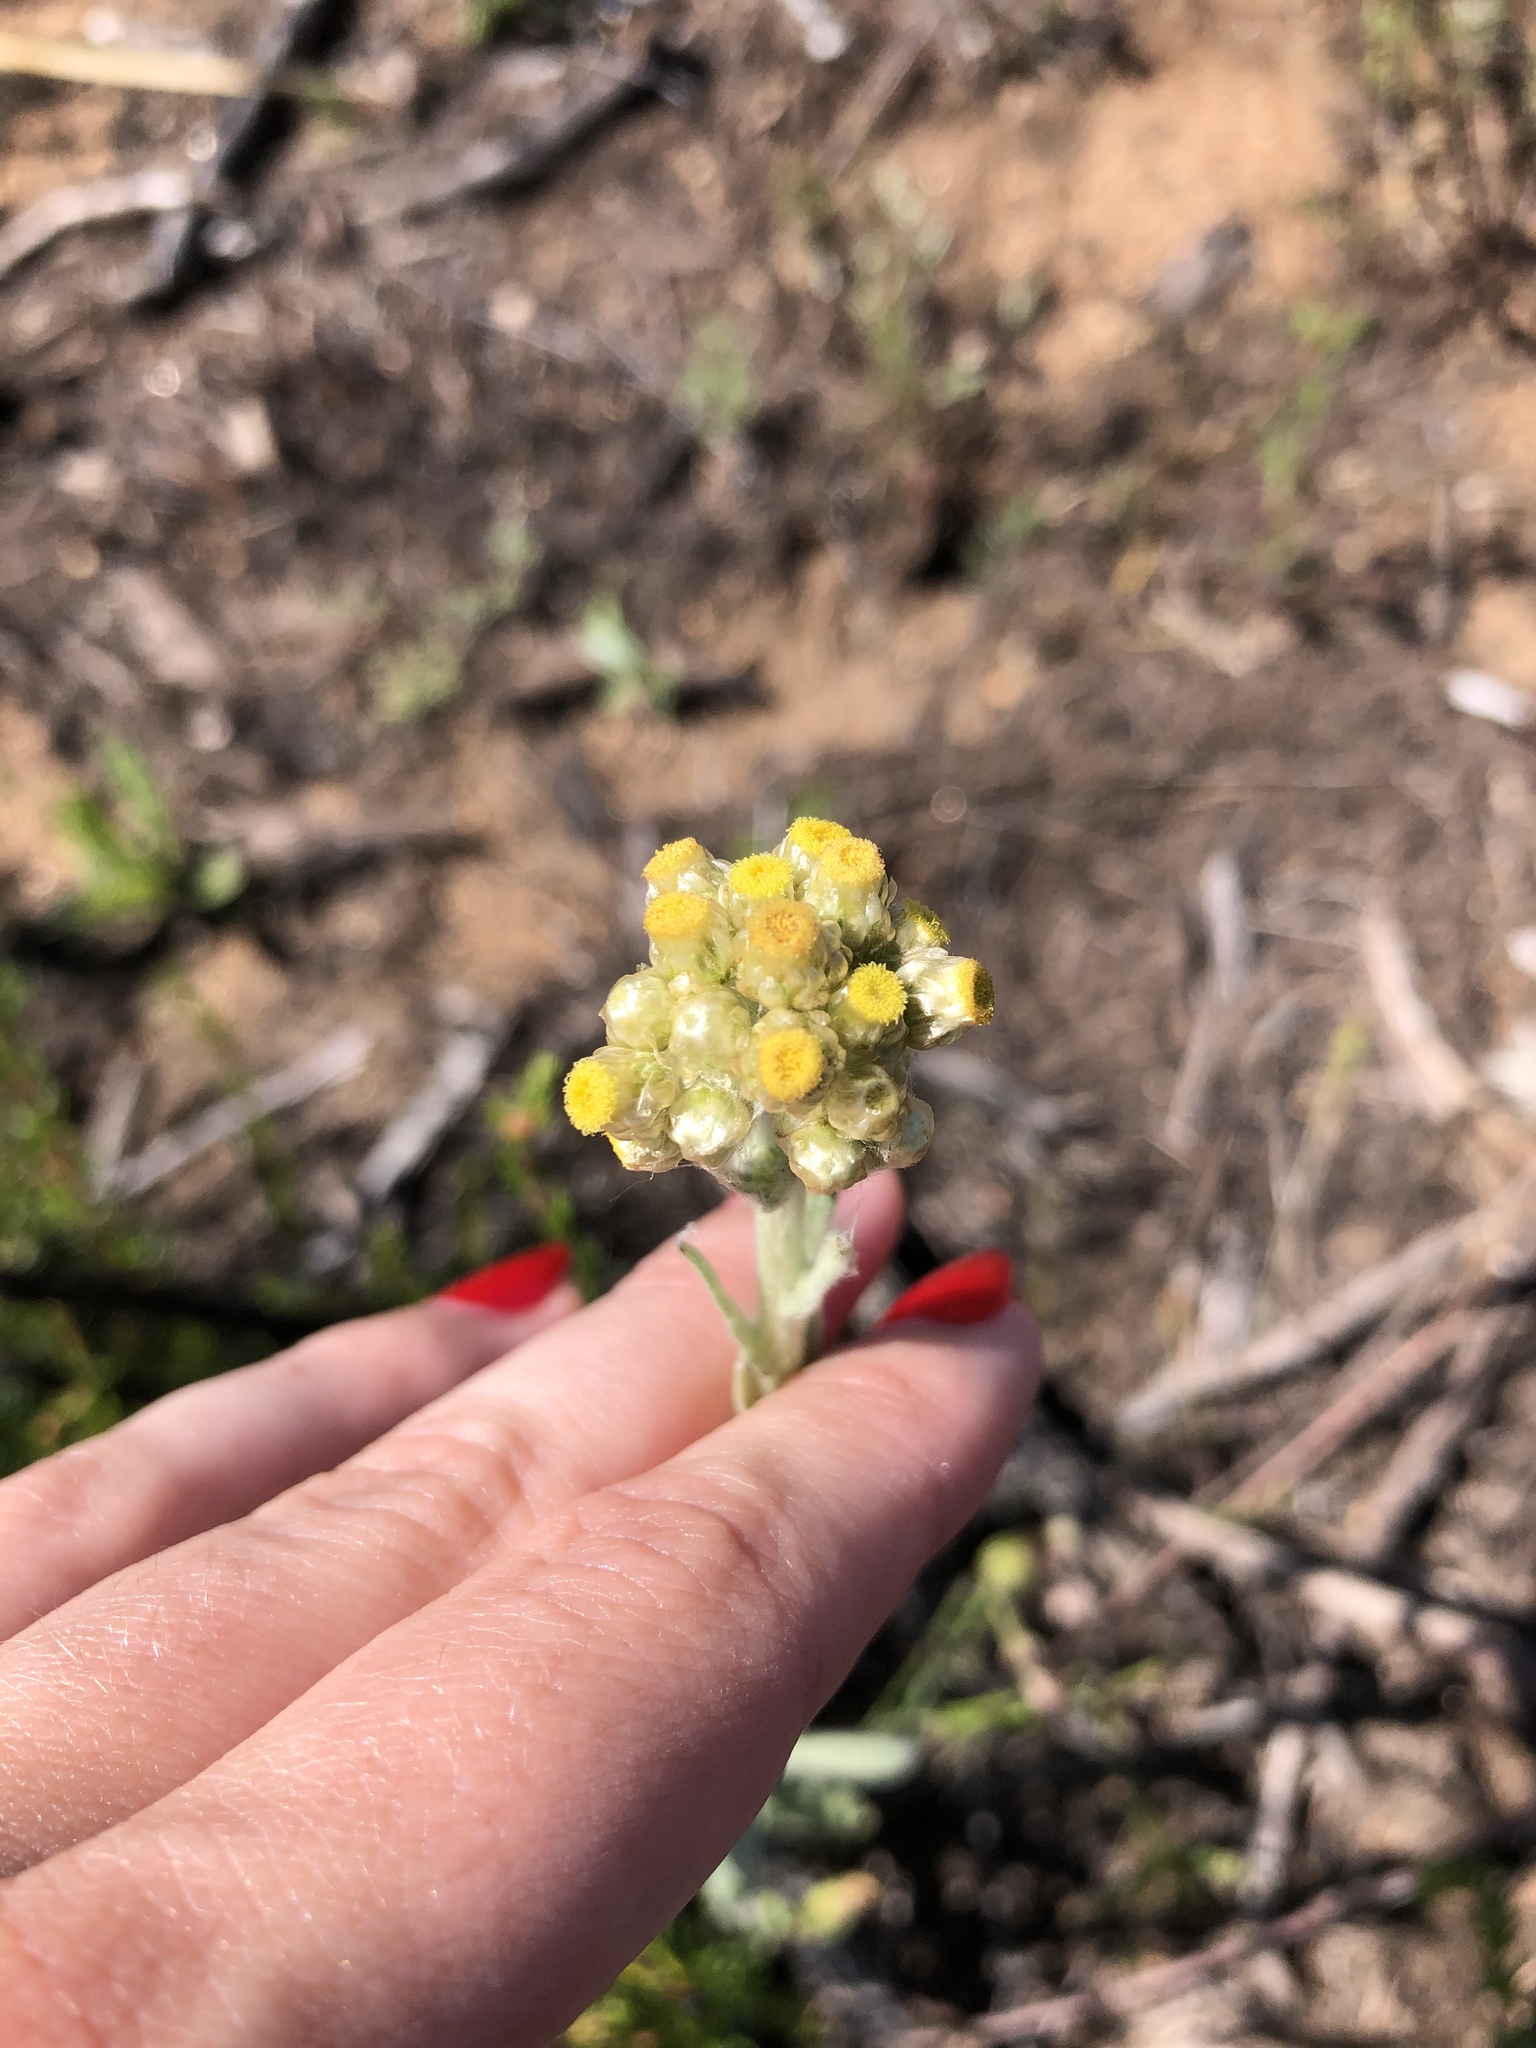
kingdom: Plantae
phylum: Tracheophyta
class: Magnoliopsida
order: Asterales
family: Asteraceae
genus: Pseudognaphalium
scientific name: Pseudognaphalium stramineum
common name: Cotton-batting-plant
